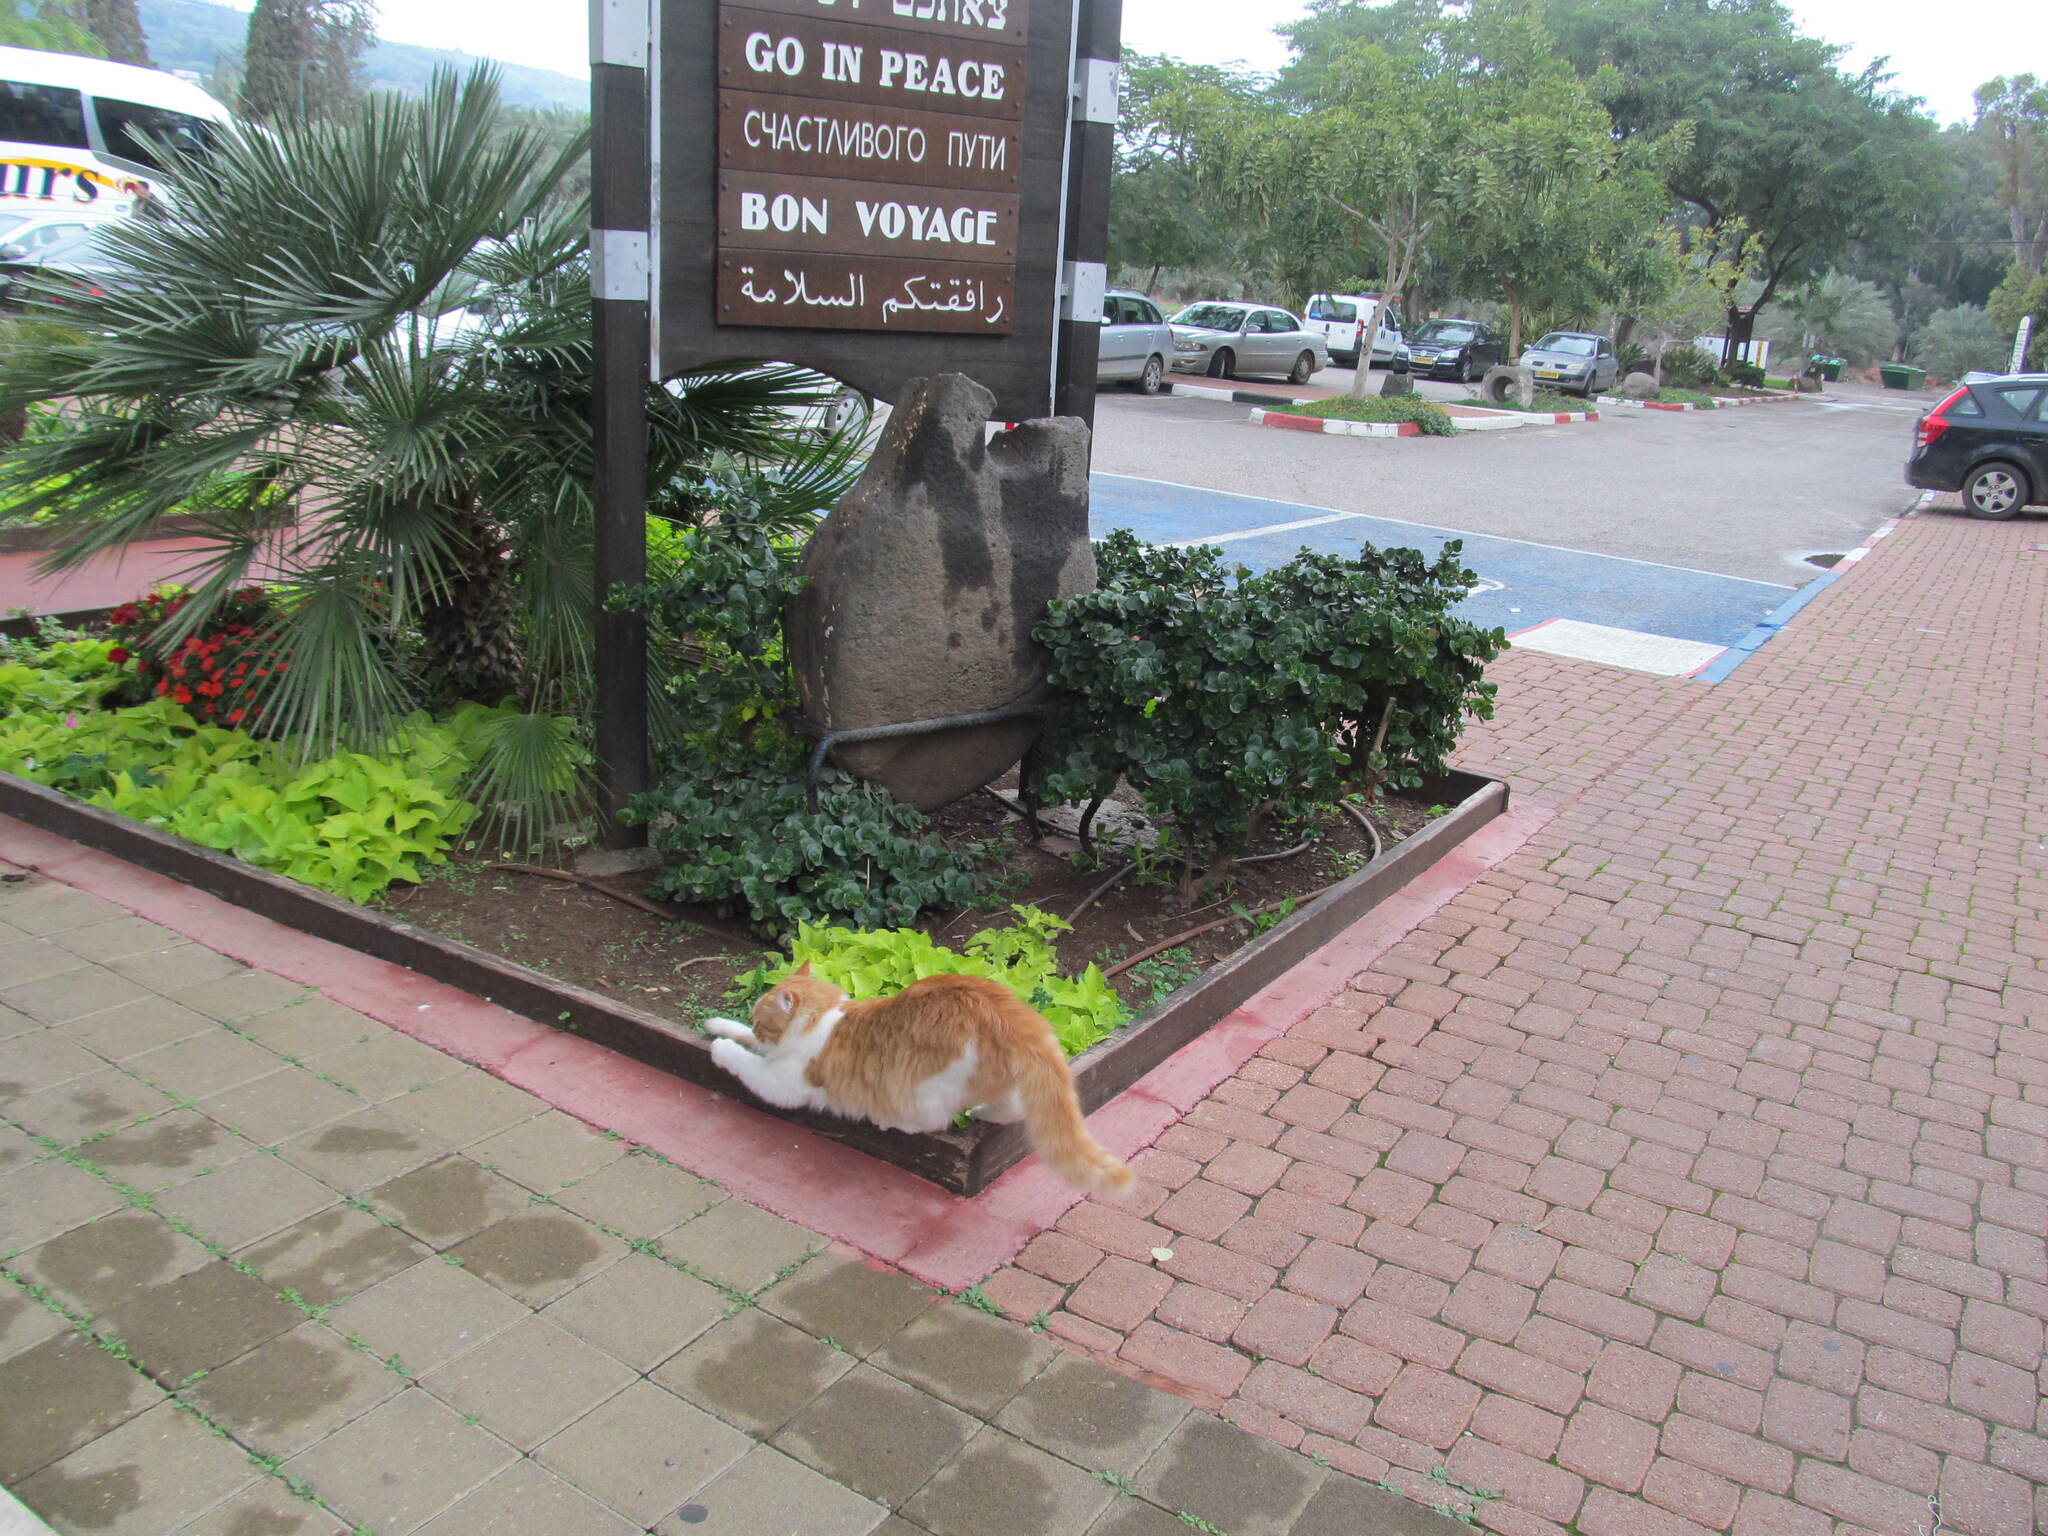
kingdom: Animalia
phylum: Chordata
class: Mammalia
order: Carnivora
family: Felidae
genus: Felis
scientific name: Felis catus
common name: Domestic cat
